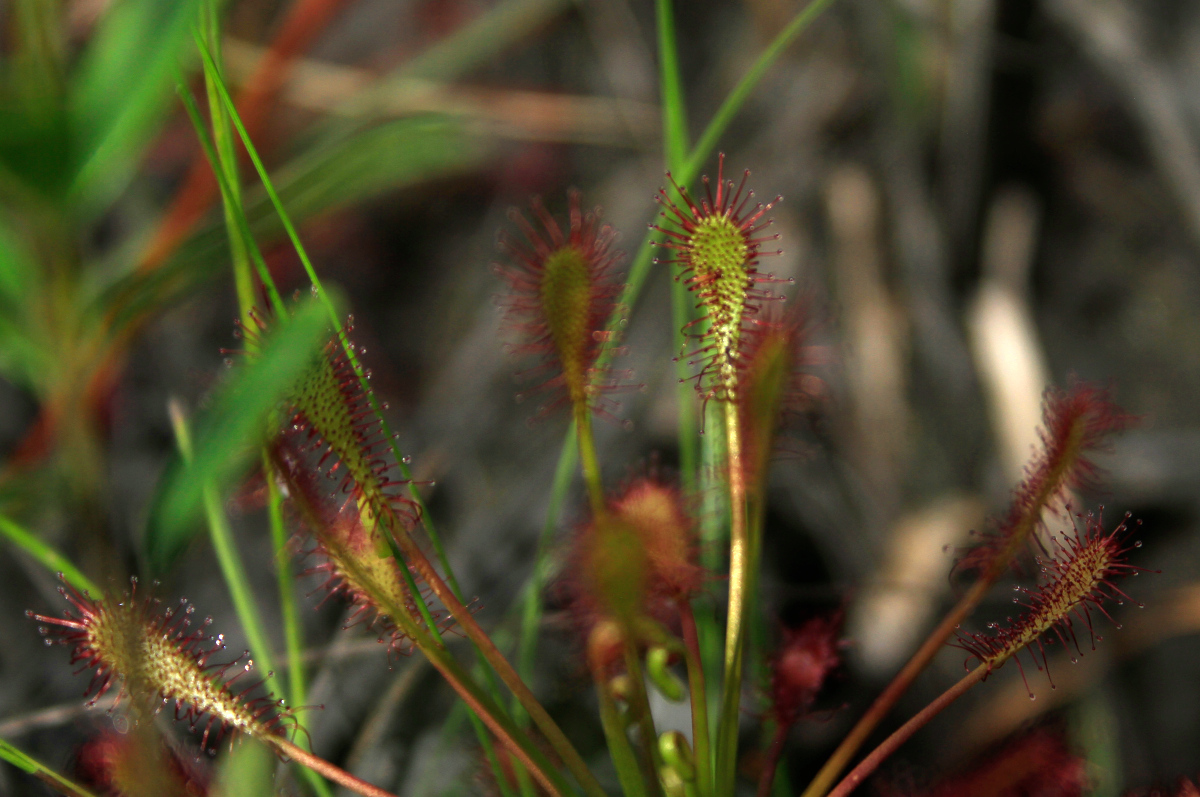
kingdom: Plantae
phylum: Tracheophyta
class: Magnoliopsida
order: Caryophyllales
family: Droseraceae
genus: Drosera
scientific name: Drosera intermedia
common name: Oblong-leaved sundew
